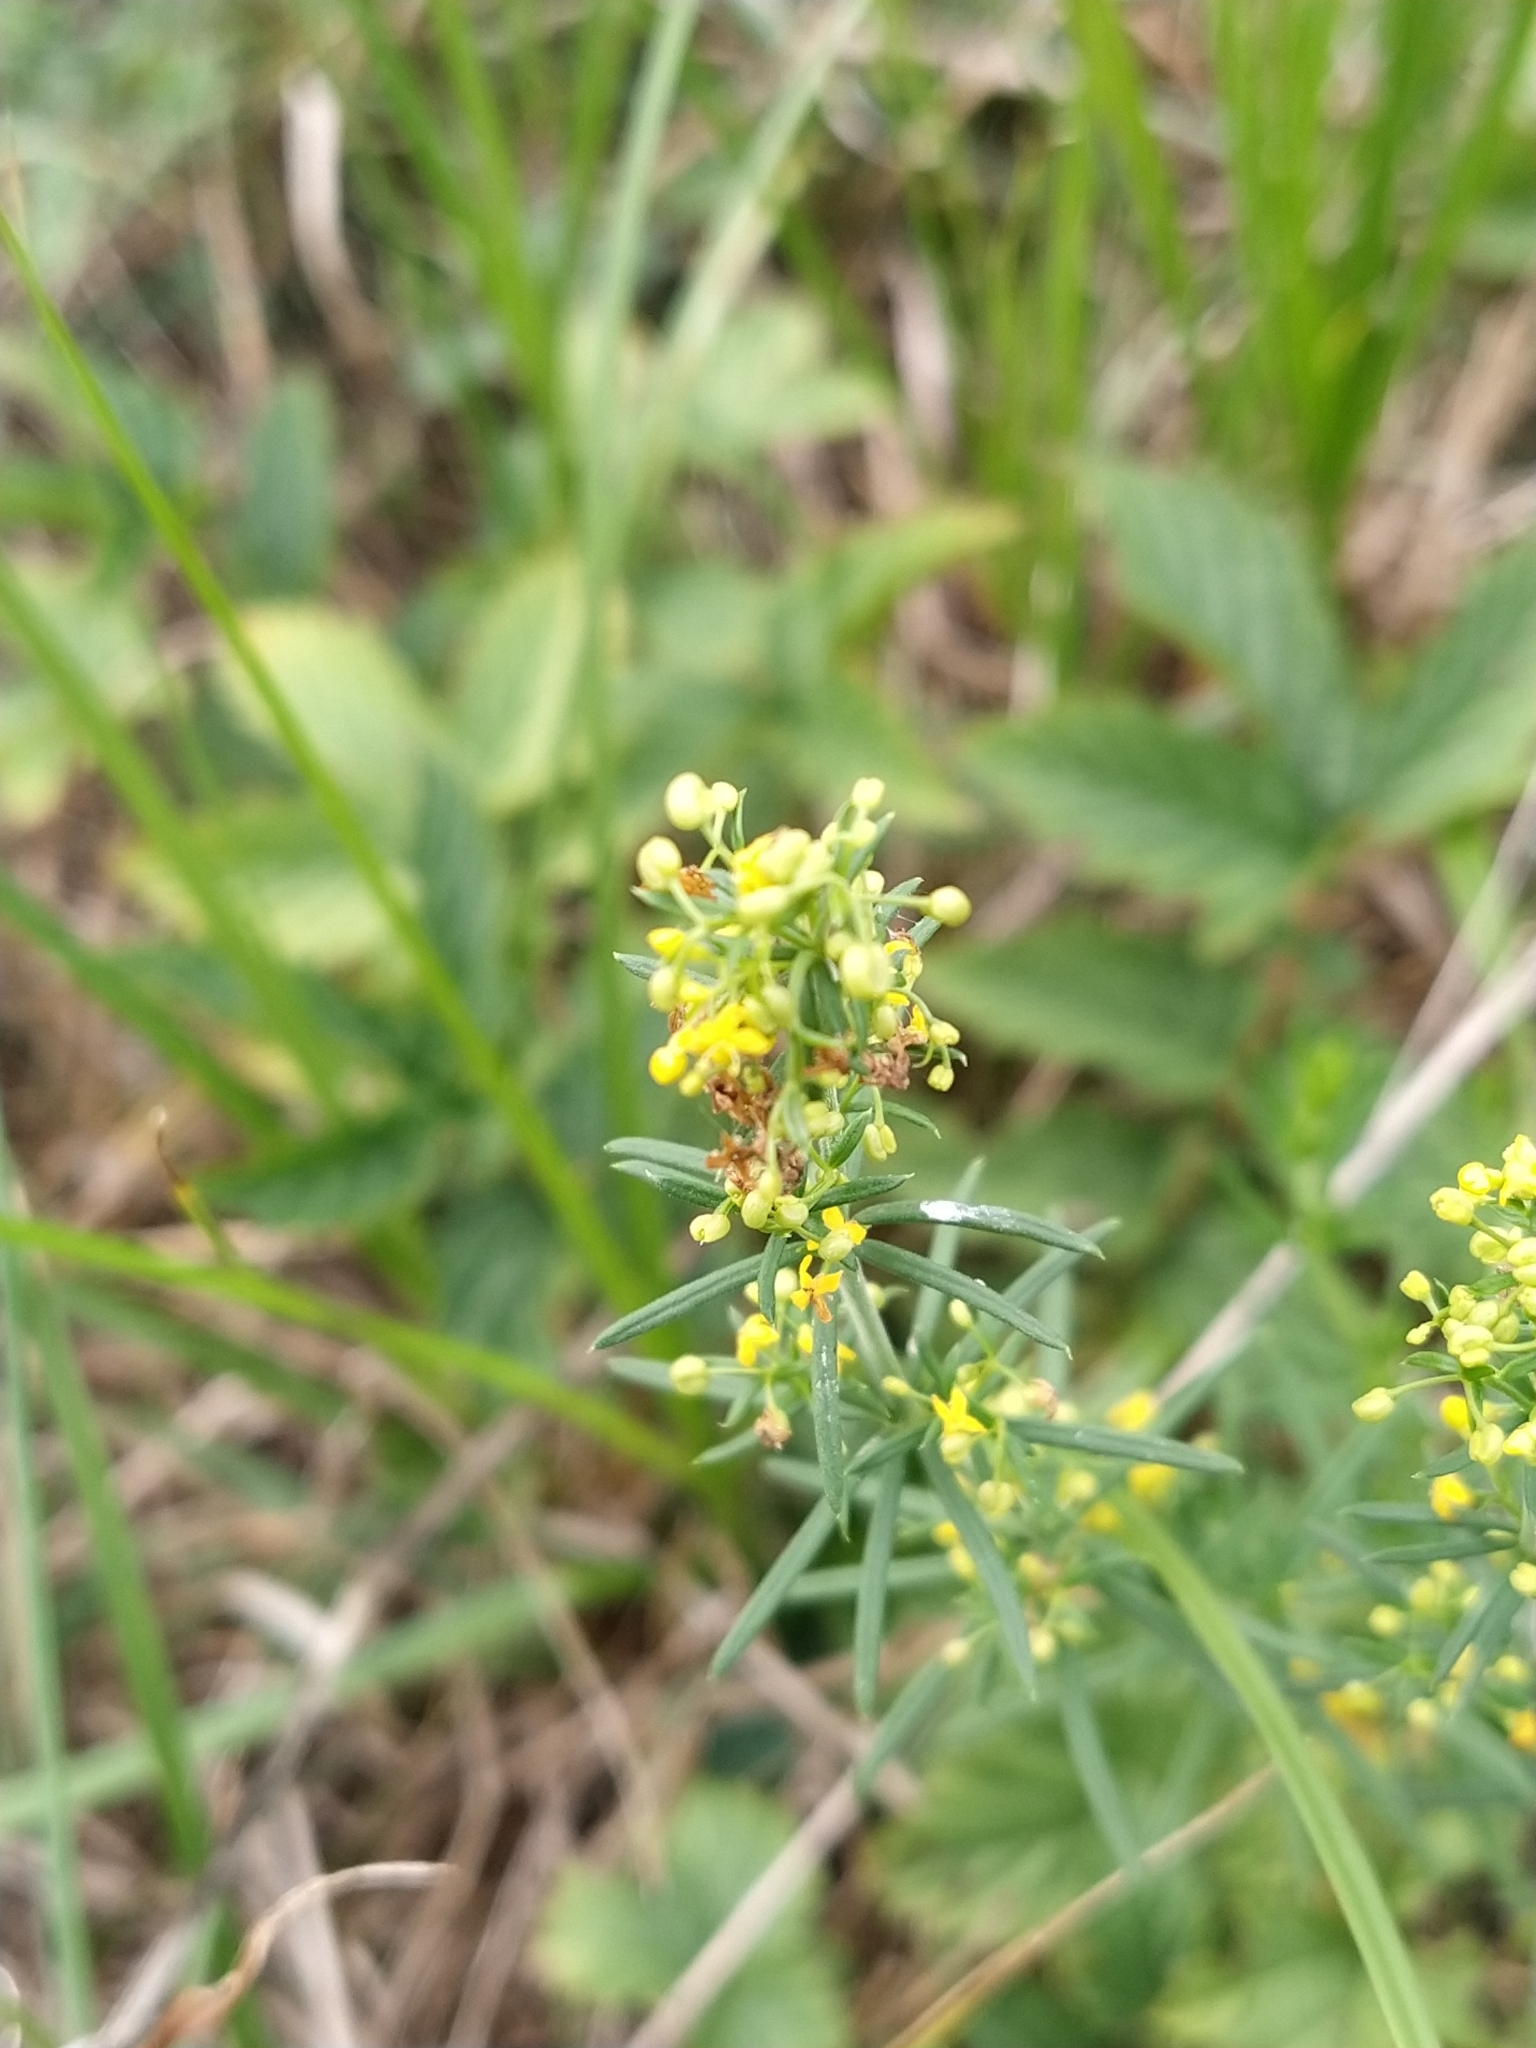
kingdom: Plantae
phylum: Tracheophyta
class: Magnoliopsida
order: Gentianales
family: Rubiaceae
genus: Galium
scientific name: Galium verum
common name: Lady's bedstraw
